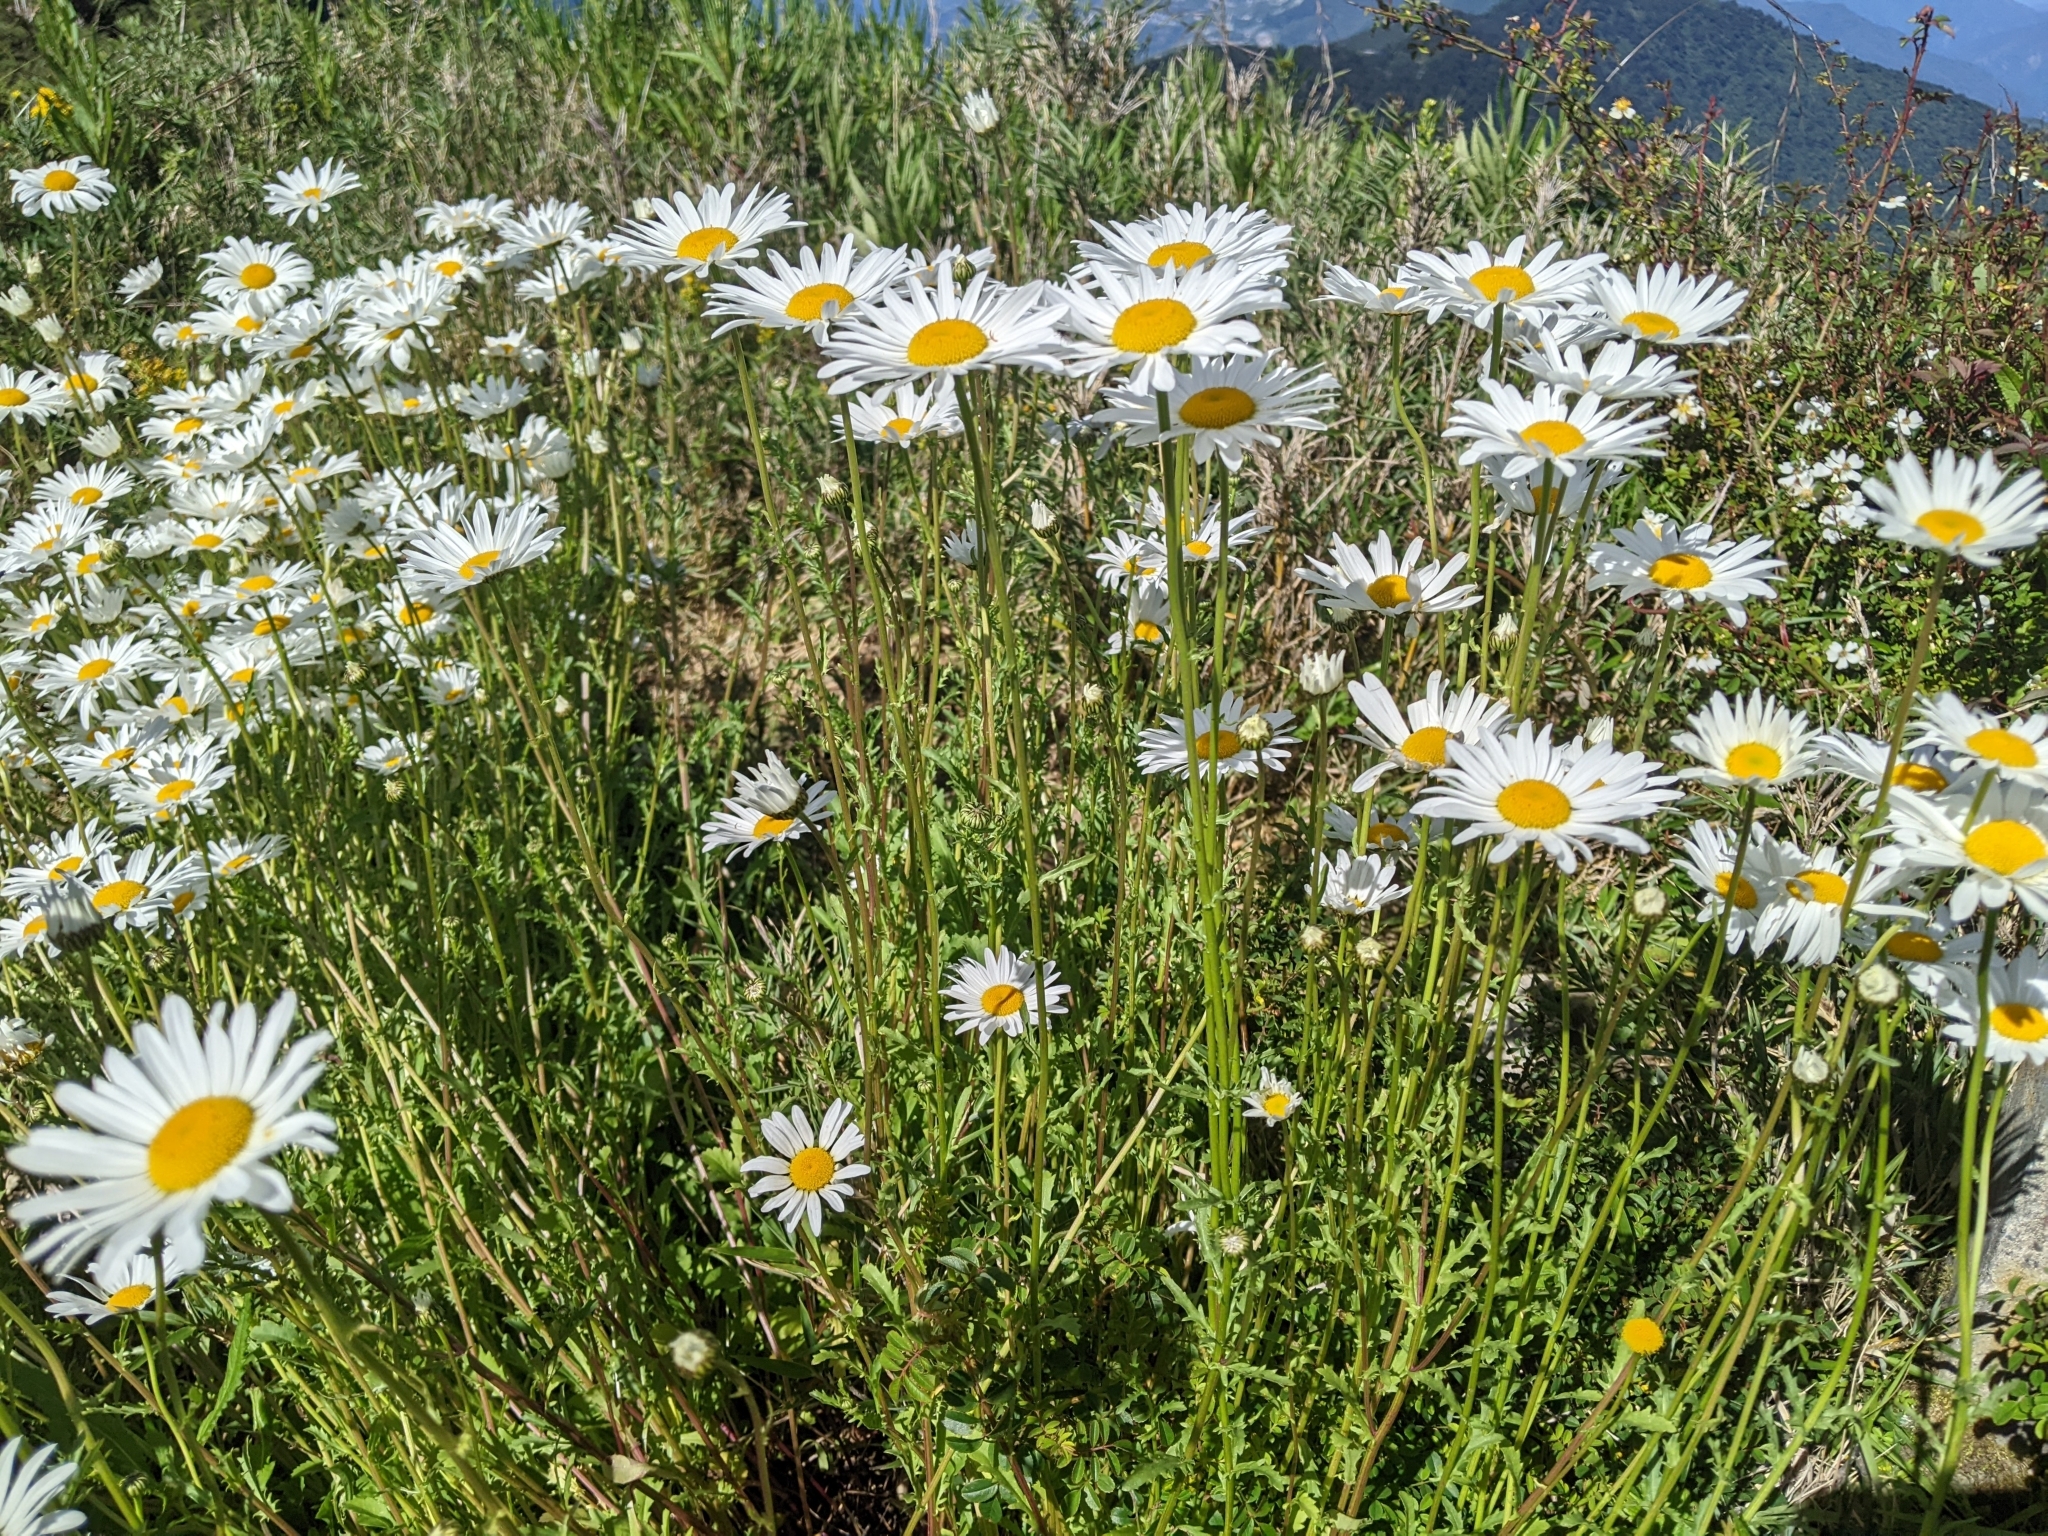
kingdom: Plantae
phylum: Tracheophyta
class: Magnoliopsida
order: Asterales
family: Asteraceae
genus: Leucanthemum
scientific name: Leucanthemum vulgare
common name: Oxeye daisy
